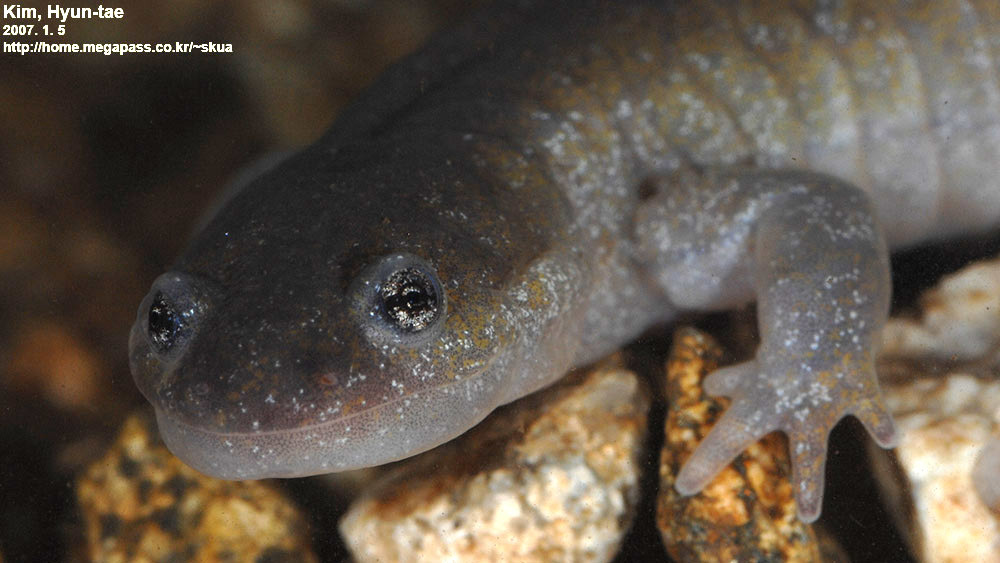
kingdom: Animalia
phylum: Chordata
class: Amphibia
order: Caudata
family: Hynobiidae
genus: Hynobius
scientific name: Hynobius leechii
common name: Gensan salamander
